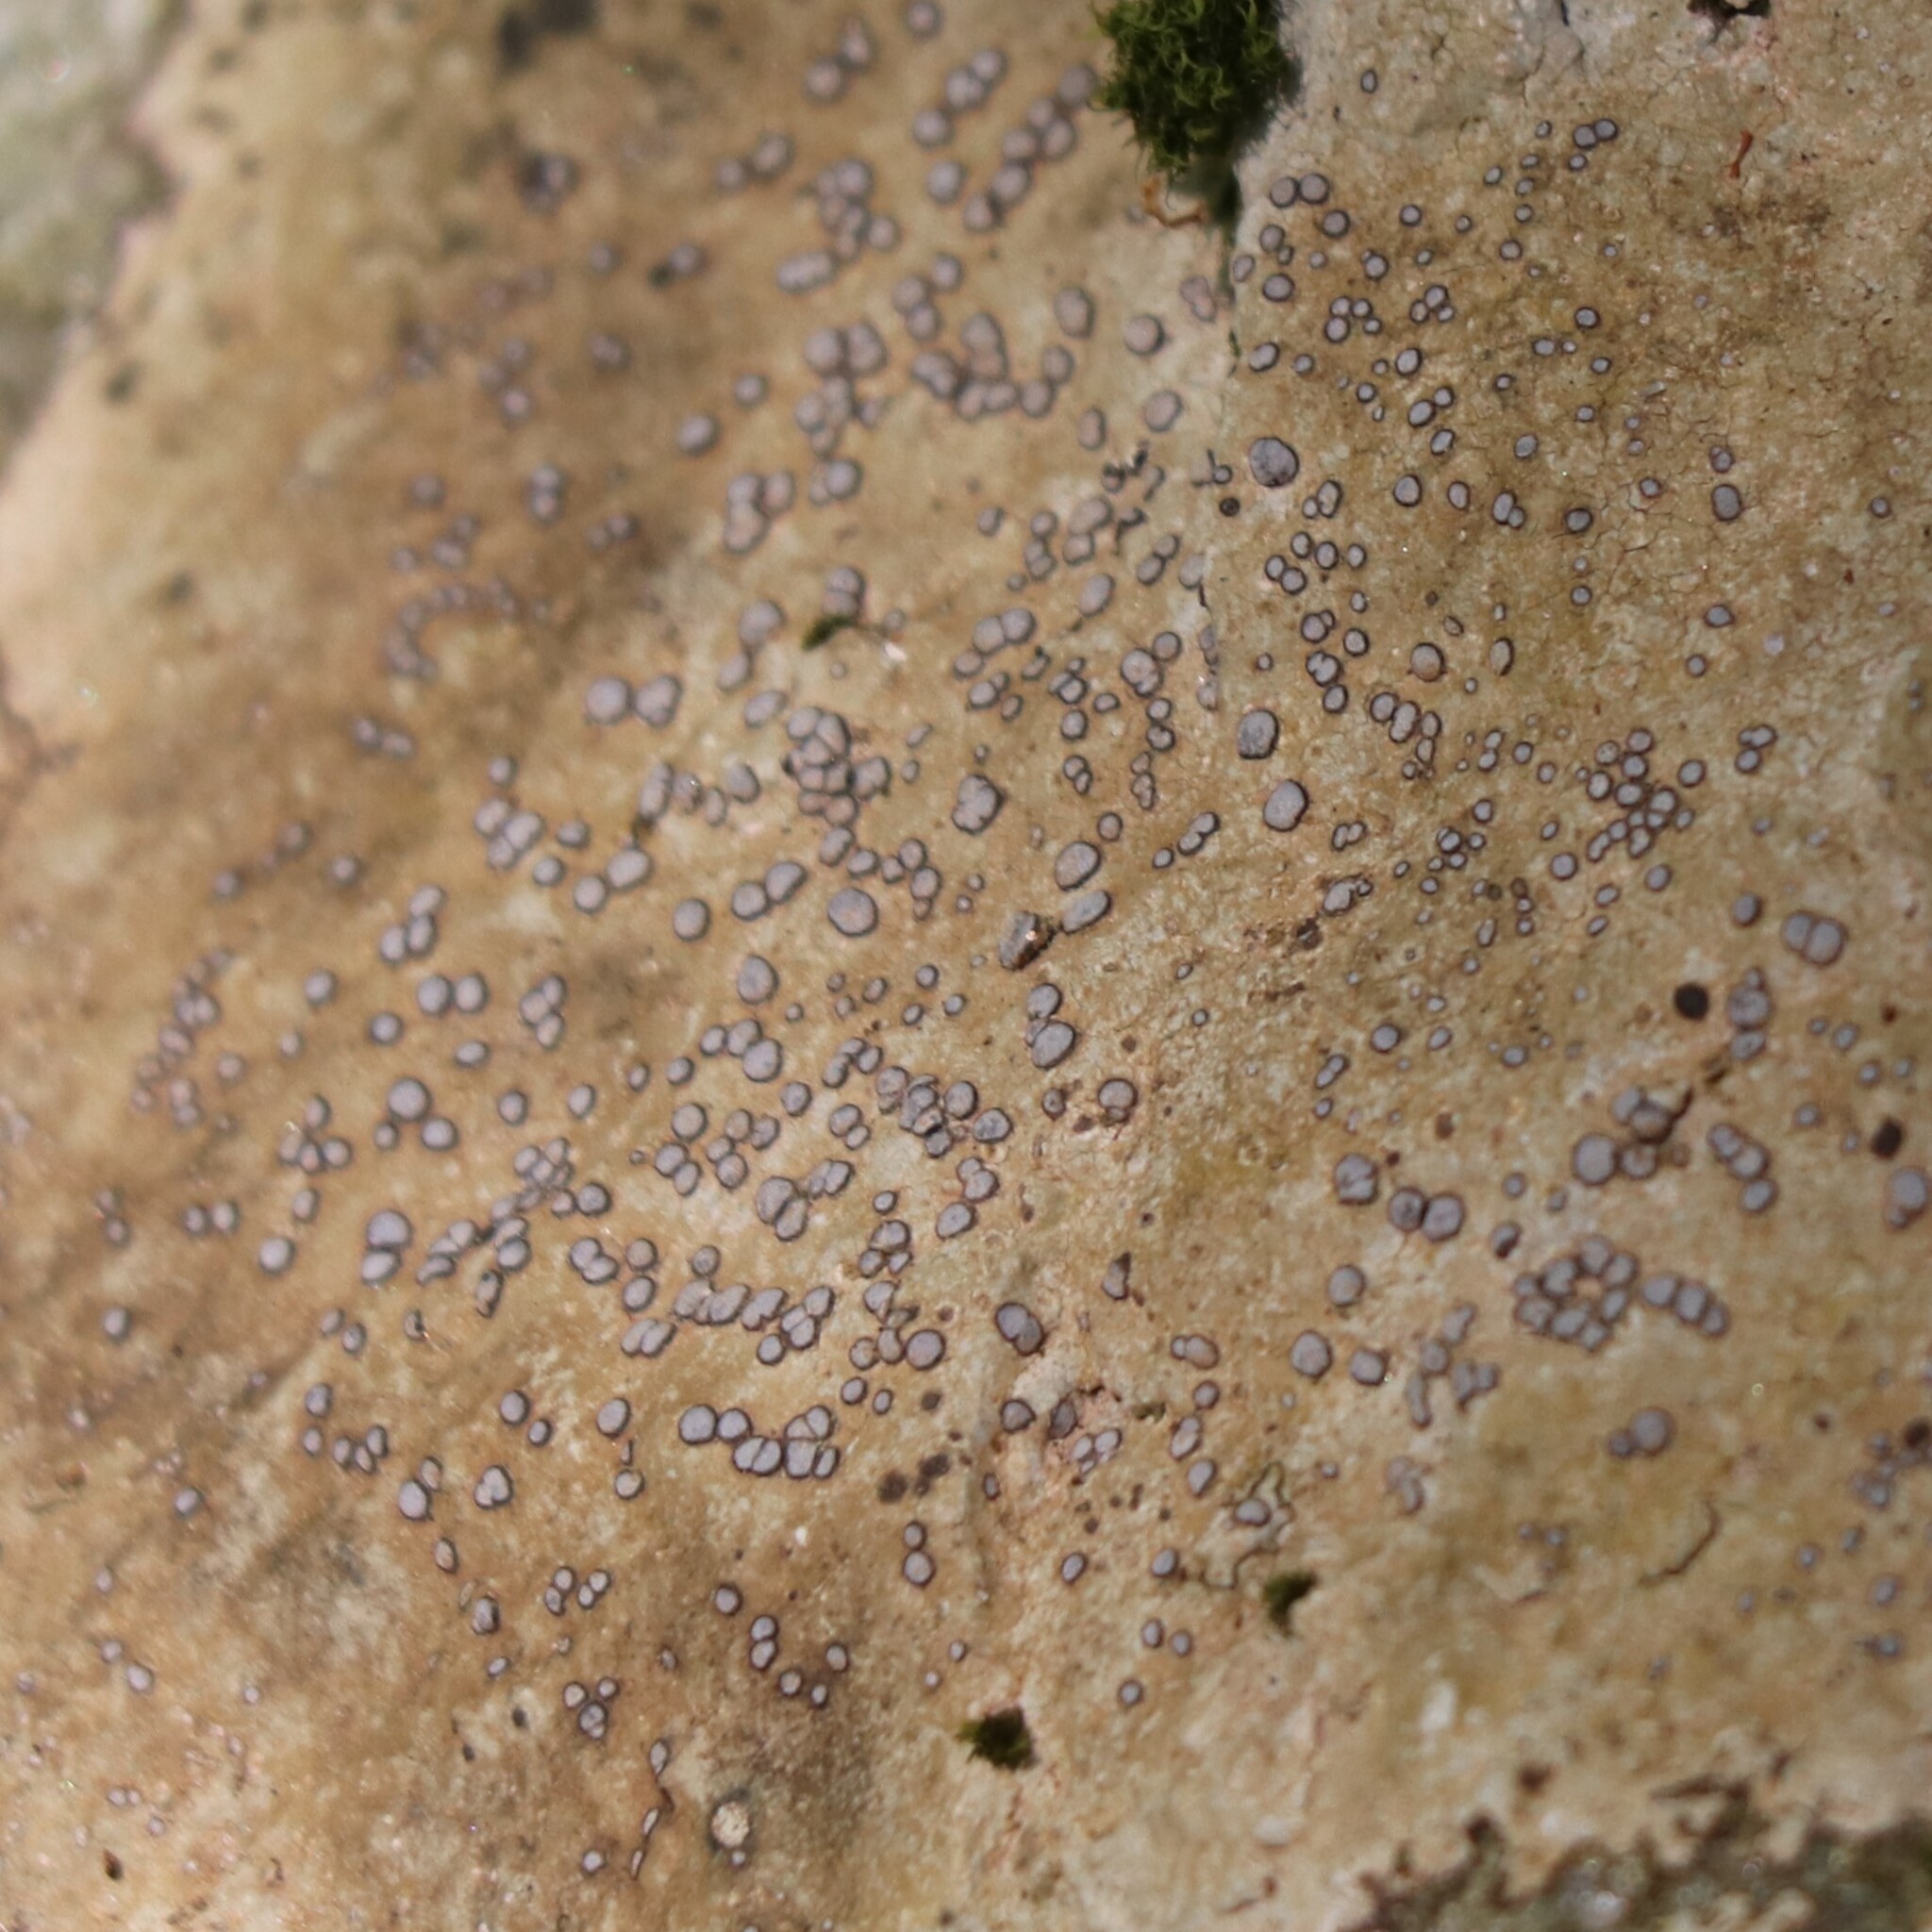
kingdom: Fungi
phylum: Ascomycota
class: Lecanoromycetes
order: Lecideales
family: Lecideaceae
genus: Porpidia
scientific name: Porpidia albocaerulescens
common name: Smokey-eyed boulder lichen
